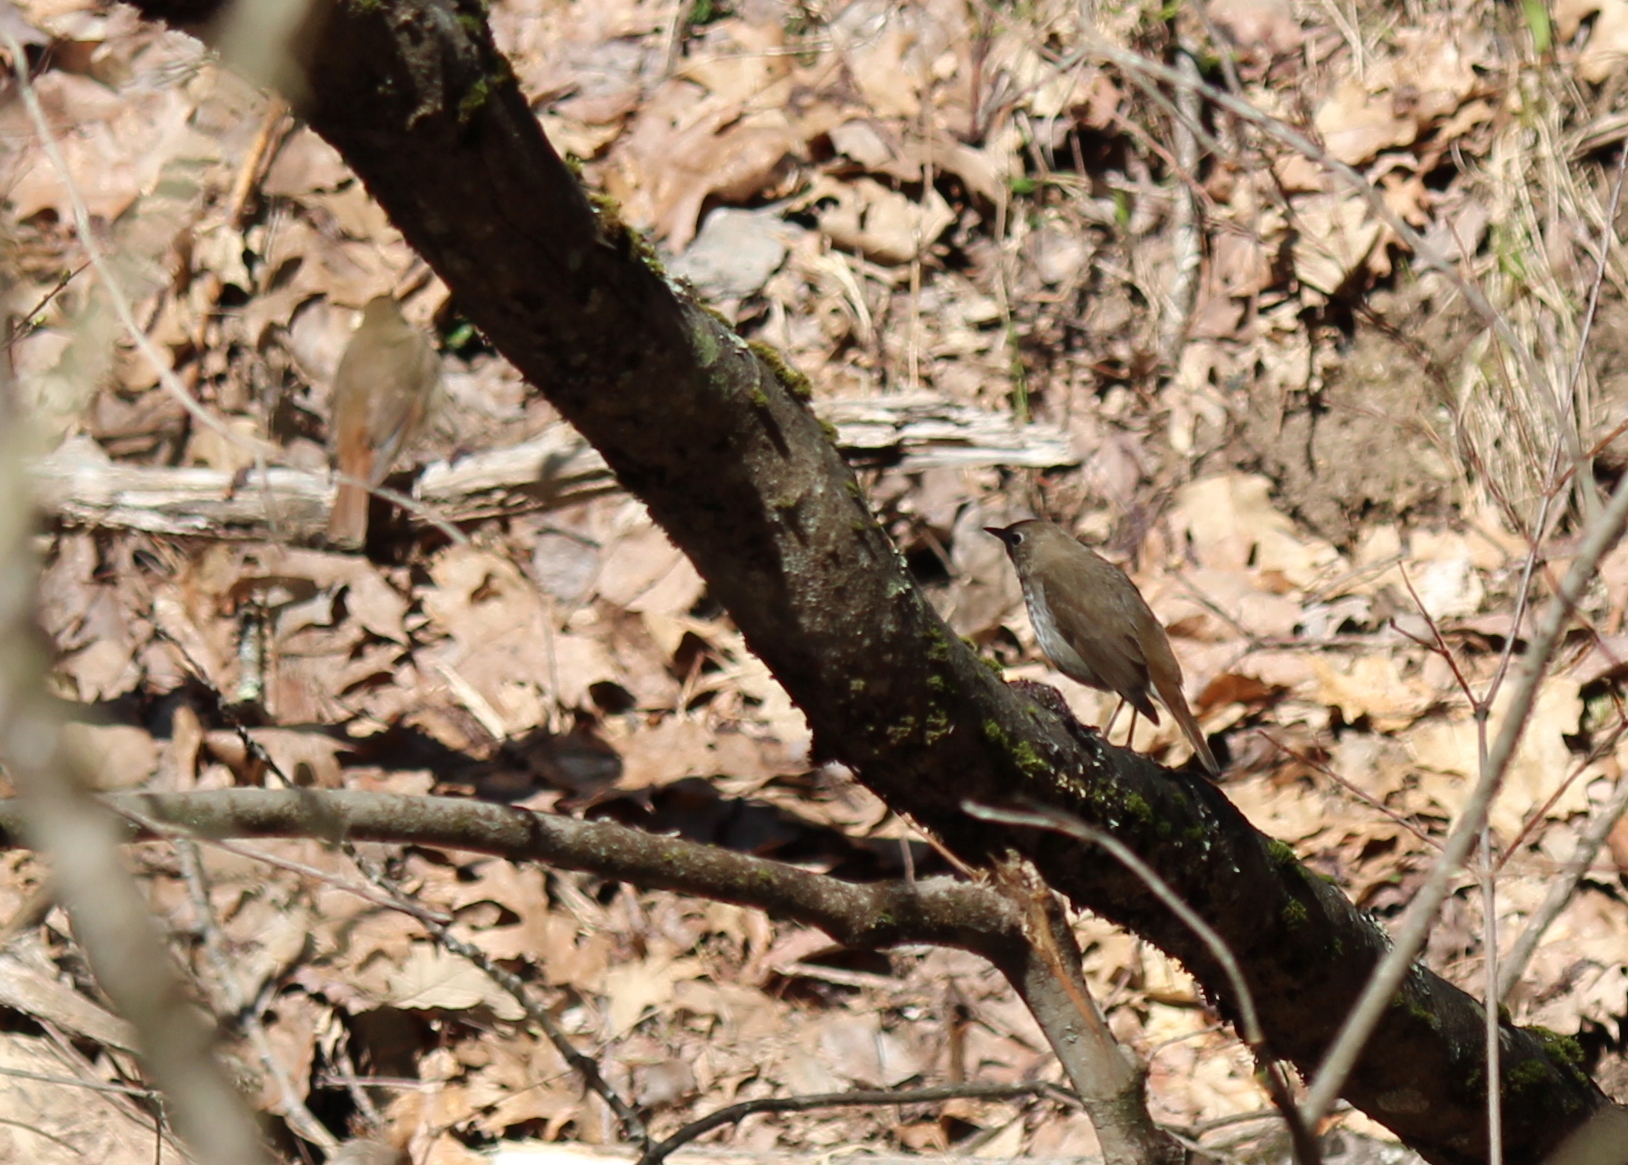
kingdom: Animalia
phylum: Chordata
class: Aves
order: Passeriformes
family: Turdidae
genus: Catharus
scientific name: Catharus guttatus
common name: Hermit thrush
